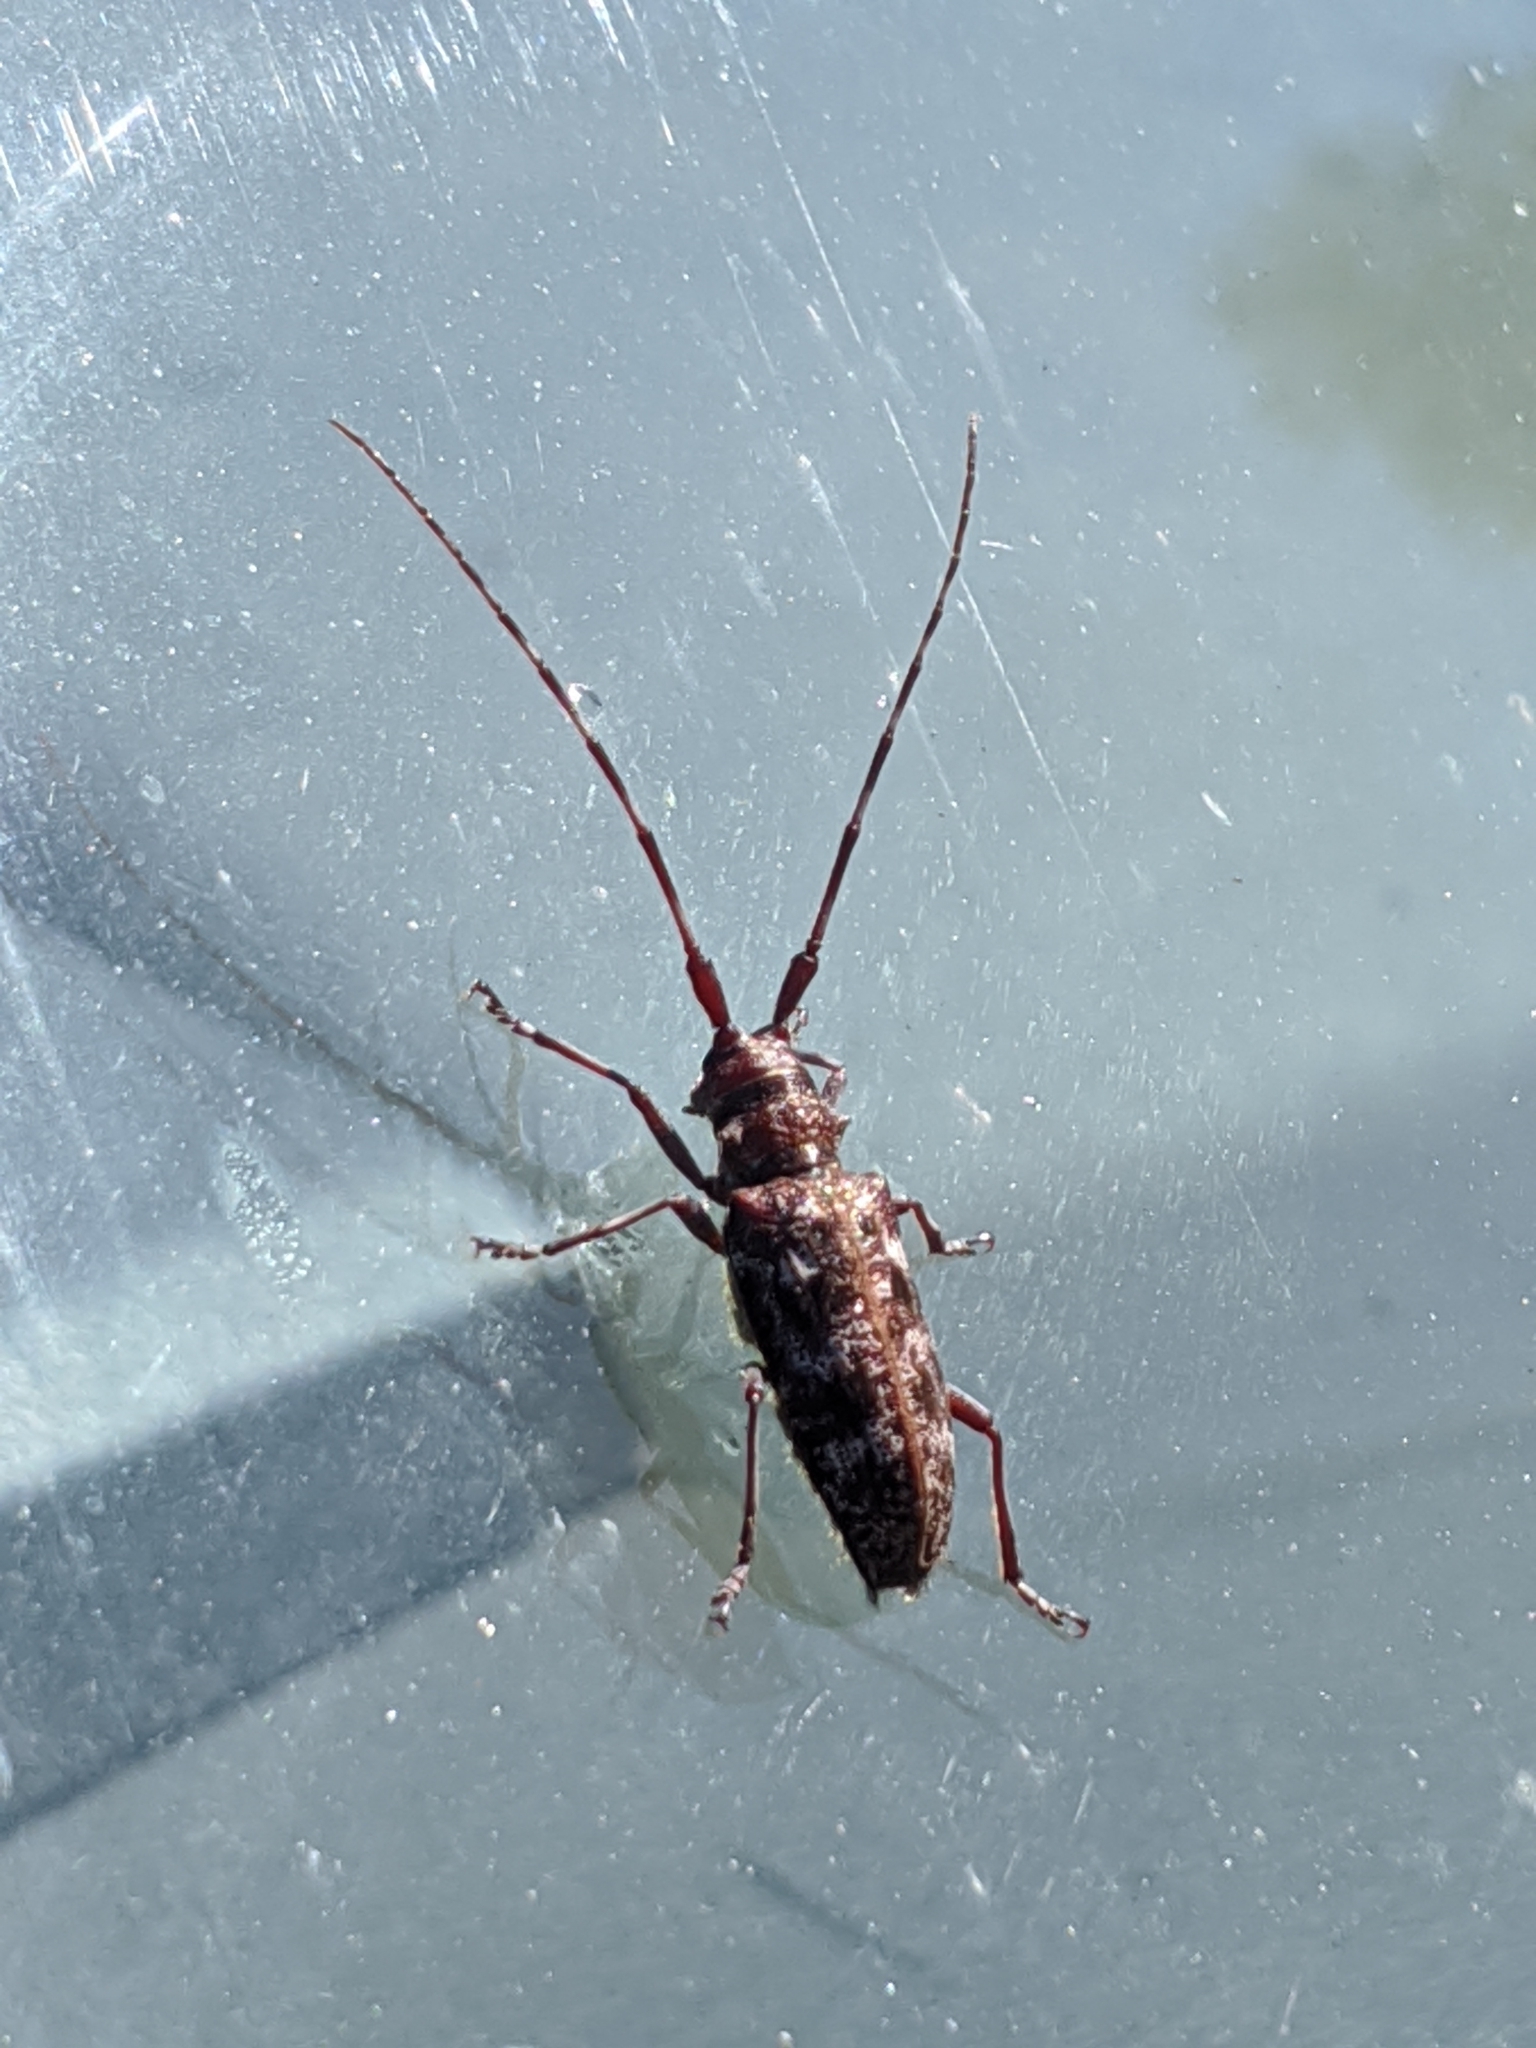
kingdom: Animalia
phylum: Arthropoda
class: Insecta
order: Coleoptera
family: Cerambycidae
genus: Monochamus
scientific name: Monochamus obtusus
